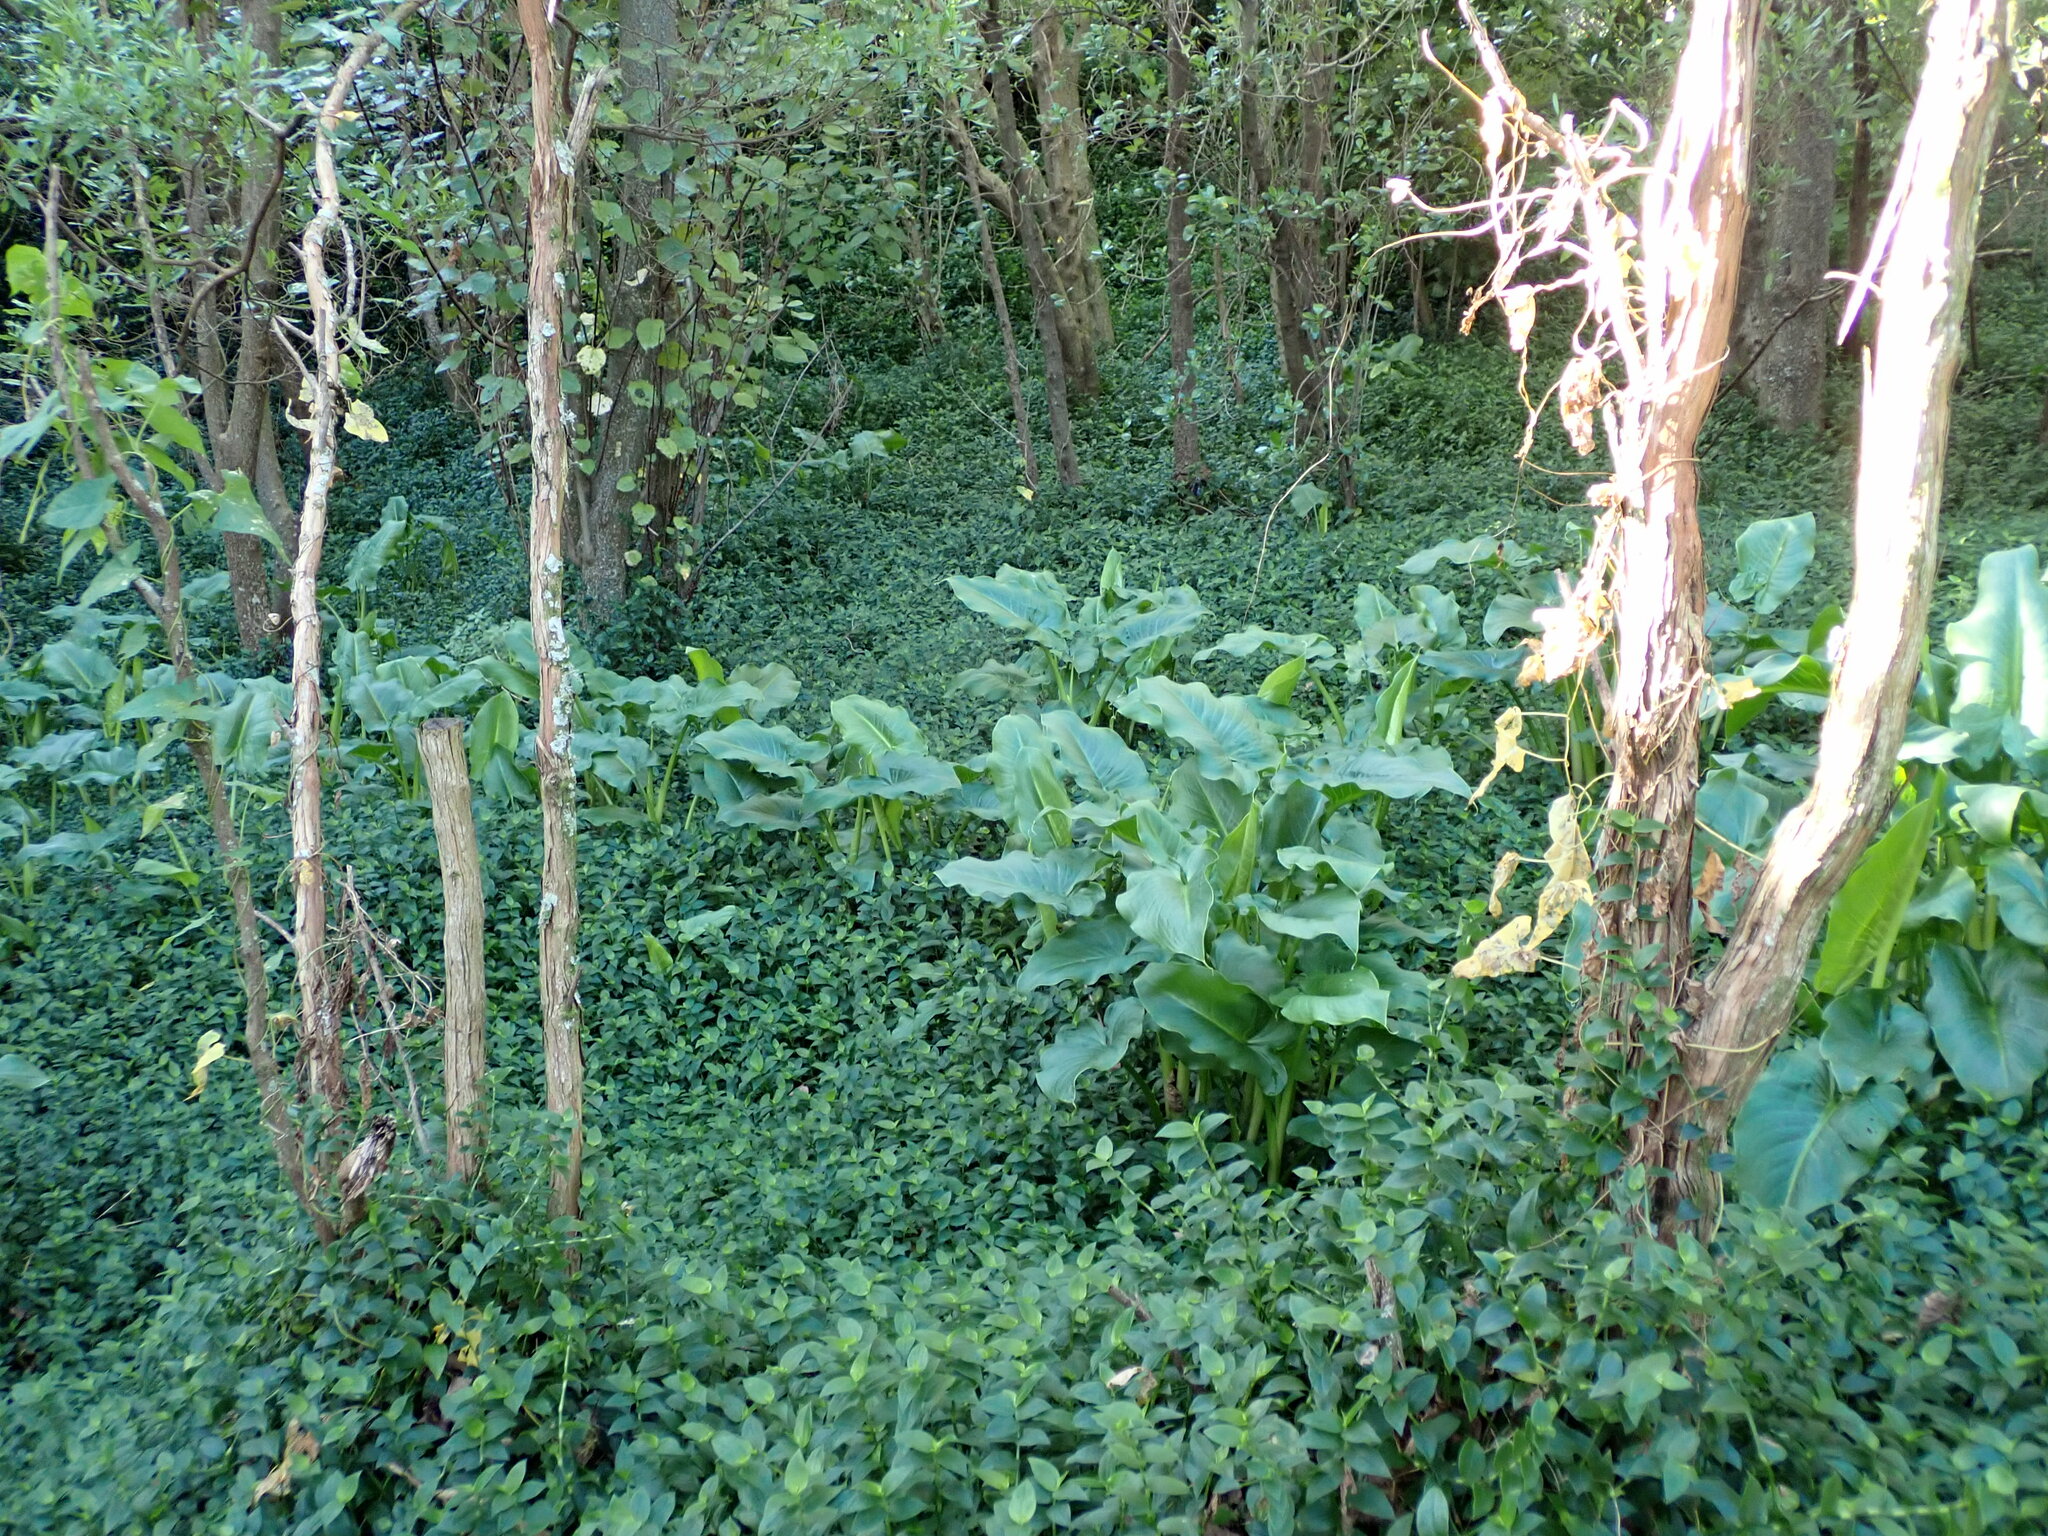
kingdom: Plantae
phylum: Tracheophyta
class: Liliopsida
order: Alismatales
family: Araceae
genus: Zantedeschia
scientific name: Zantedeschia aethiopica
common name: Altar-lily
